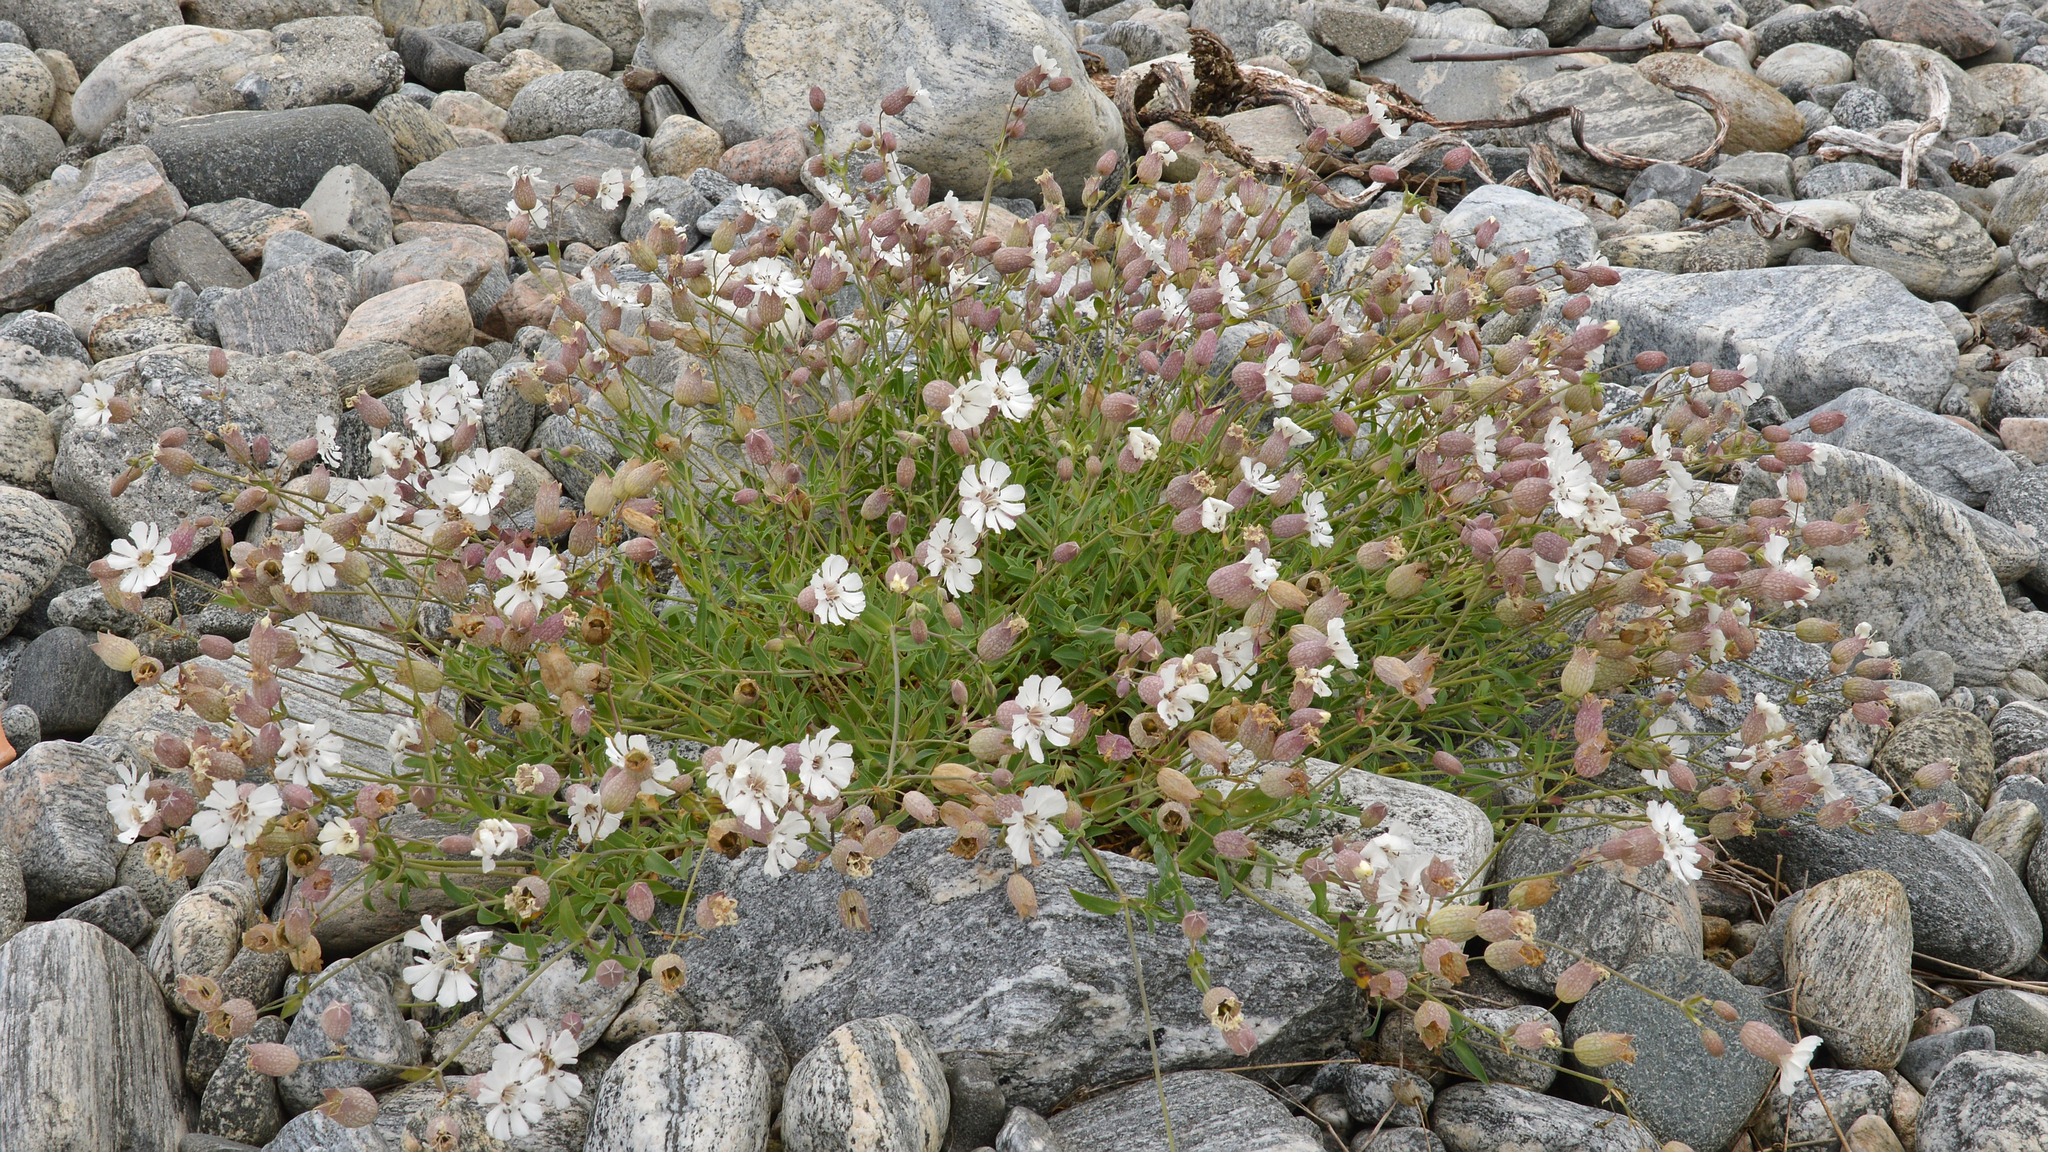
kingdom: Plantae
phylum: Tracheophyta
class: Magnoliopsida
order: Caryophyllales
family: Caryophyllaceae
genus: Silene
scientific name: Silene uniflora
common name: Sea campion
